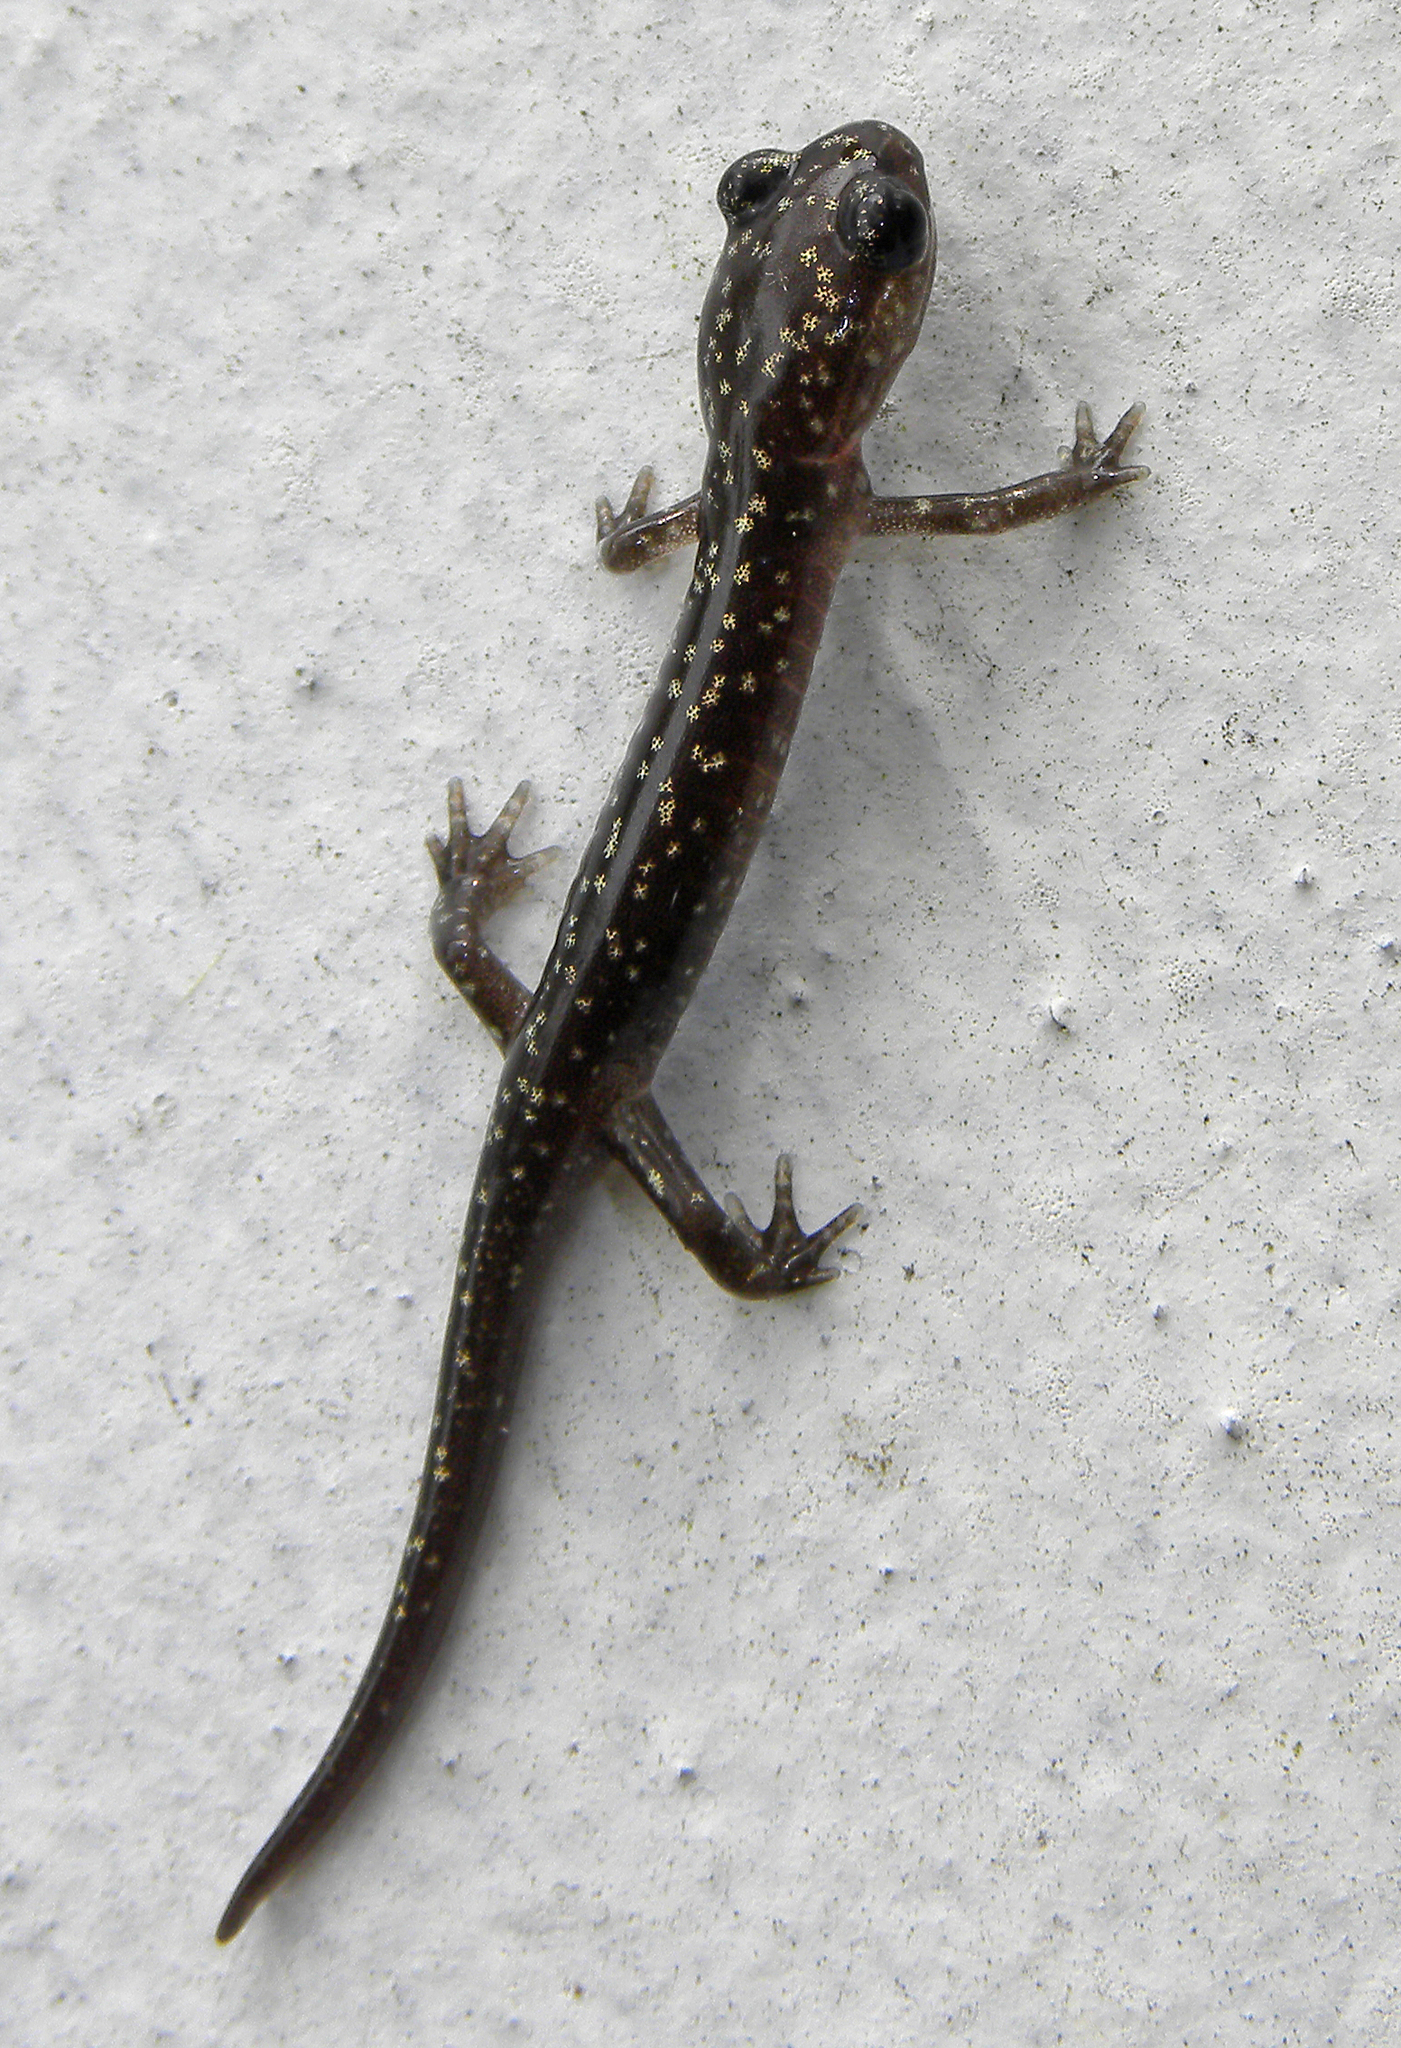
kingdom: Animalia
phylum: Chordata
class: Amphibia
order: Caudata
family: Plethodontidae
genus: Plethodon
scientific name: Plethodon glutinosus
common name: Northern slimy salamander
